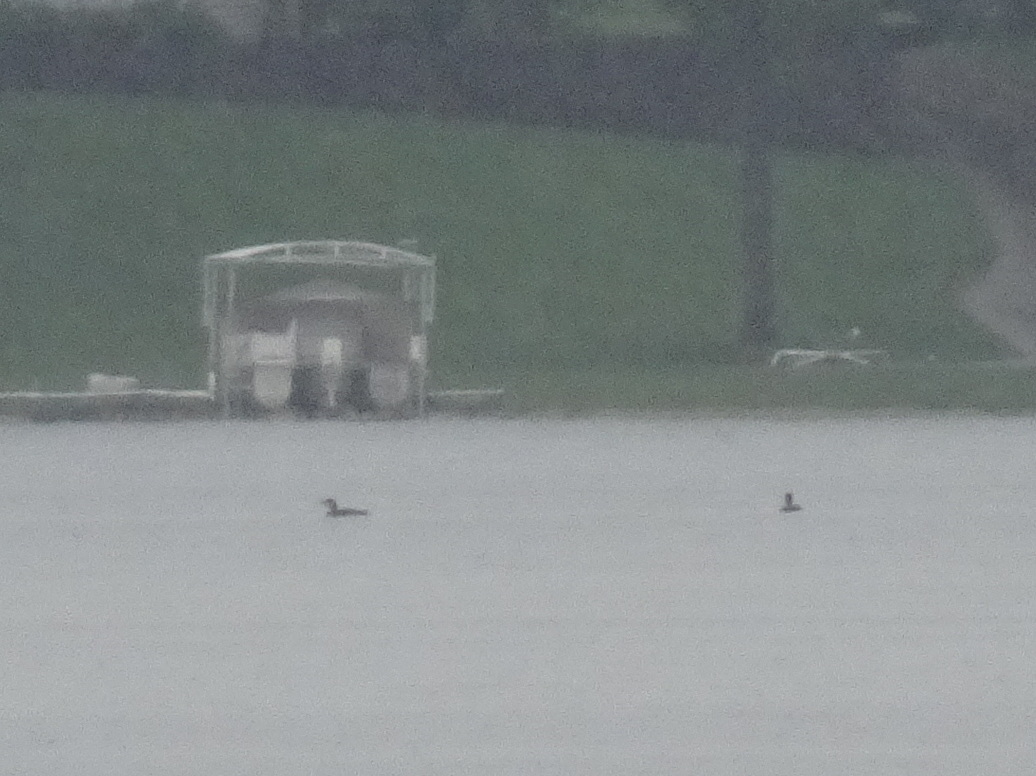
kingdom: Animalia
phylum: Chordata
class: Aves
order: Gaviiformes
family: Gaviidae
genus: Gavia
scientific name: Gavia immer
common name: Common loon
